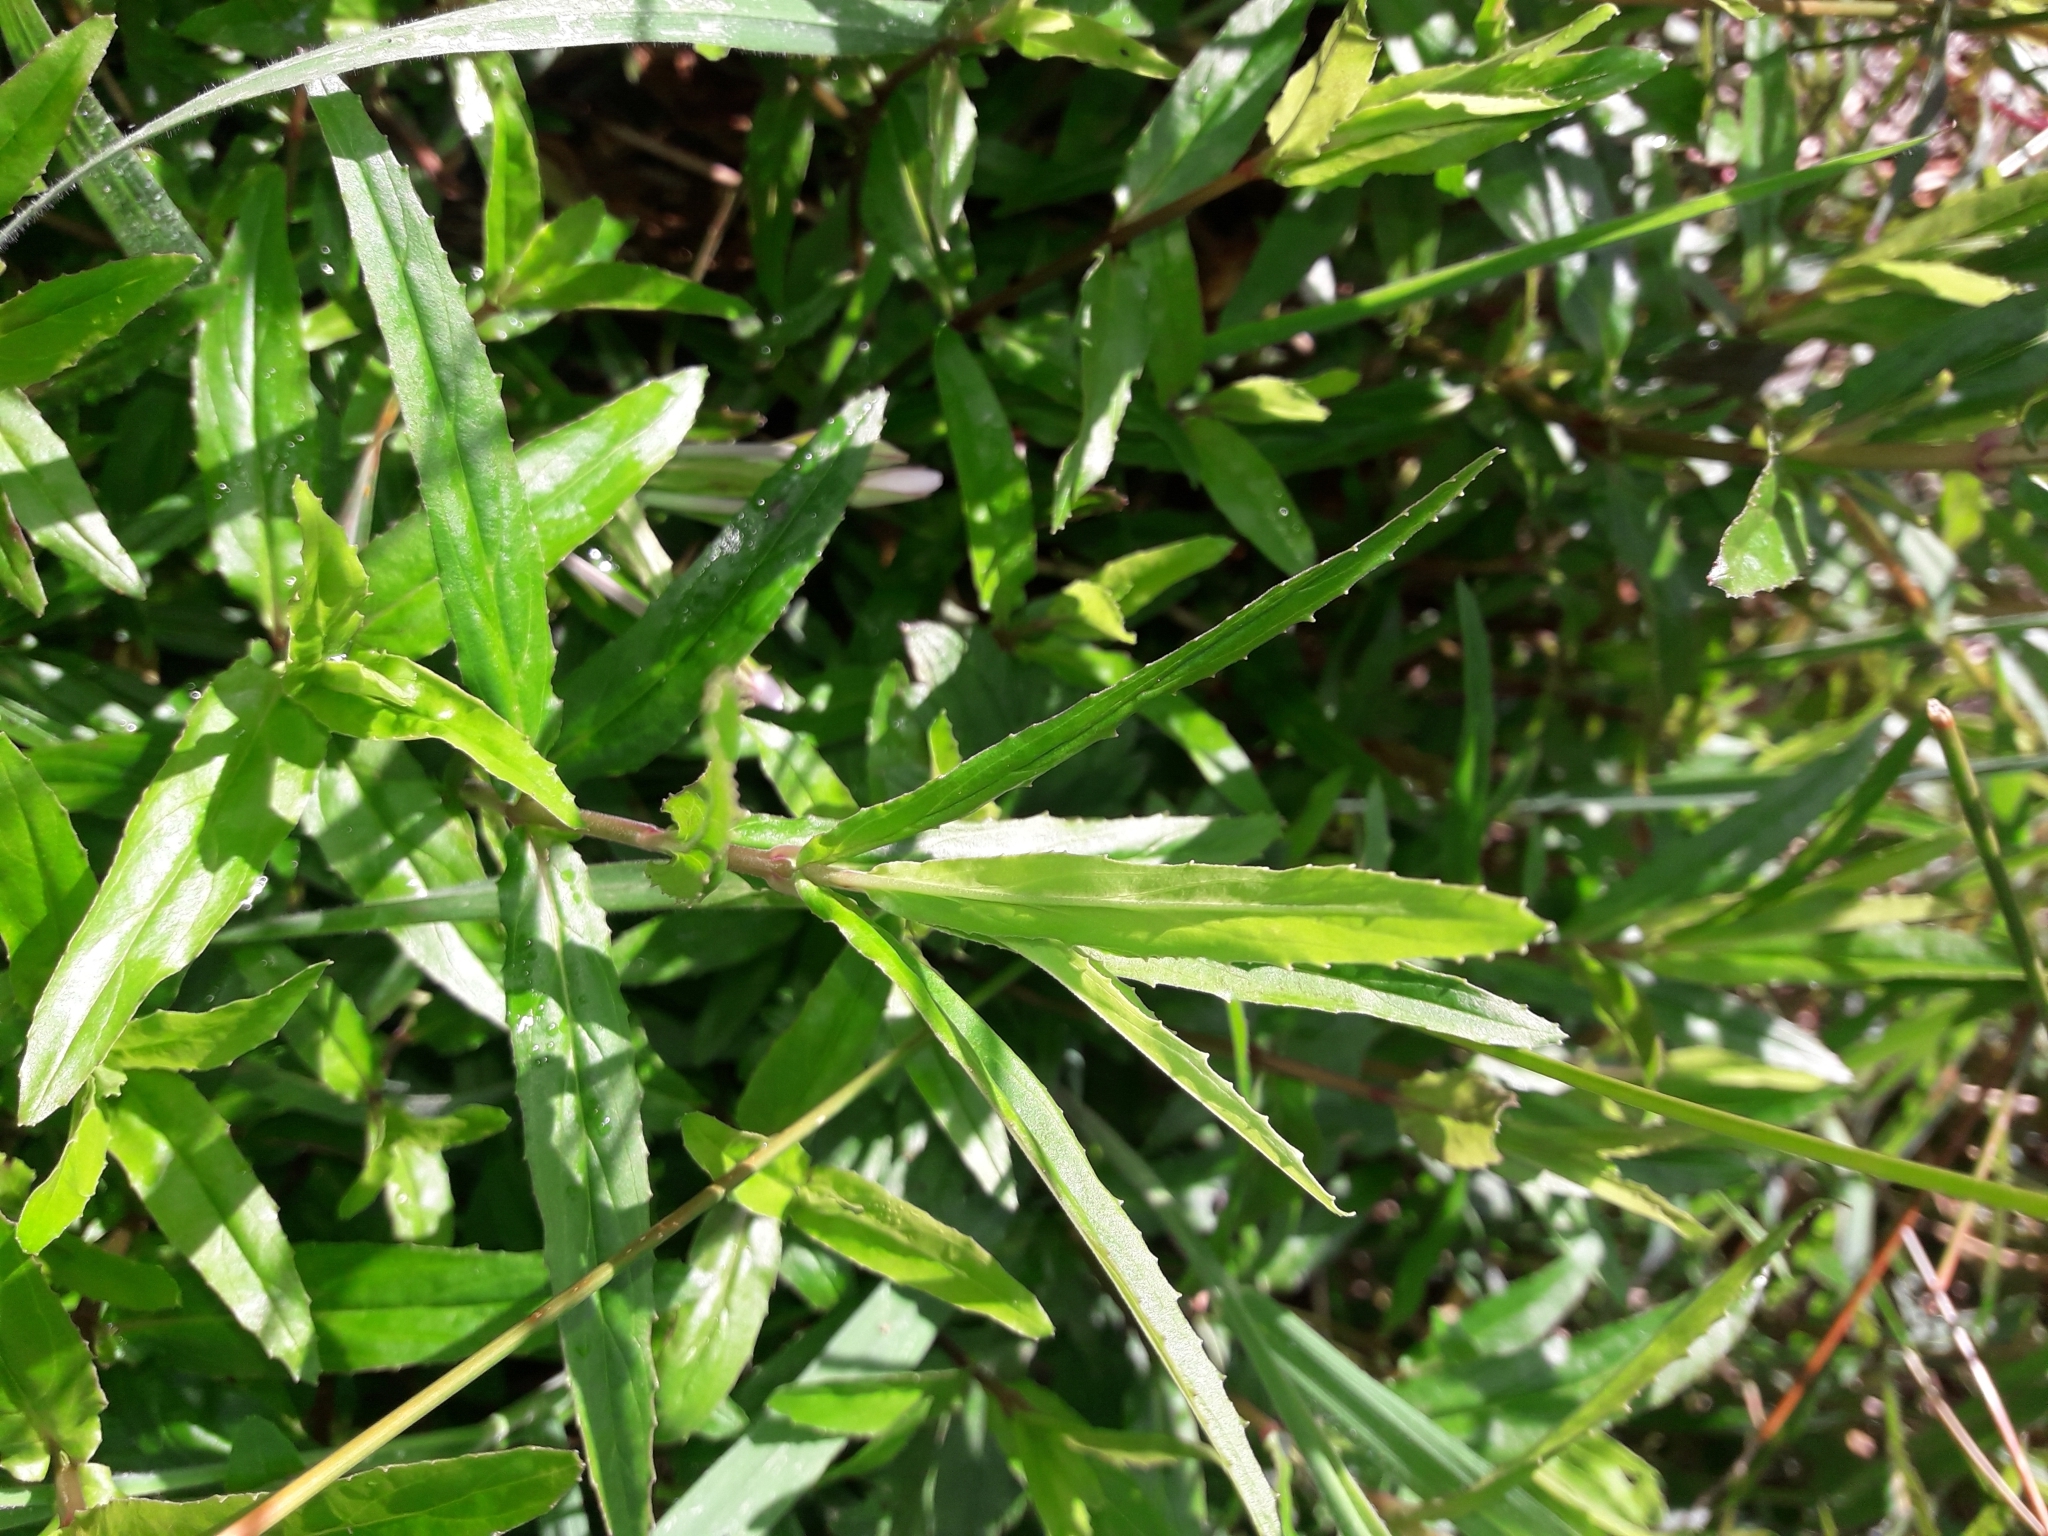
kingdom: Plantae
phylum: Tracheophyta
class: Magnoliopsida
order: Myrtales
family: Onagraceae
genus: Epilobium
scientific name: Epilobium pallidiflorum
